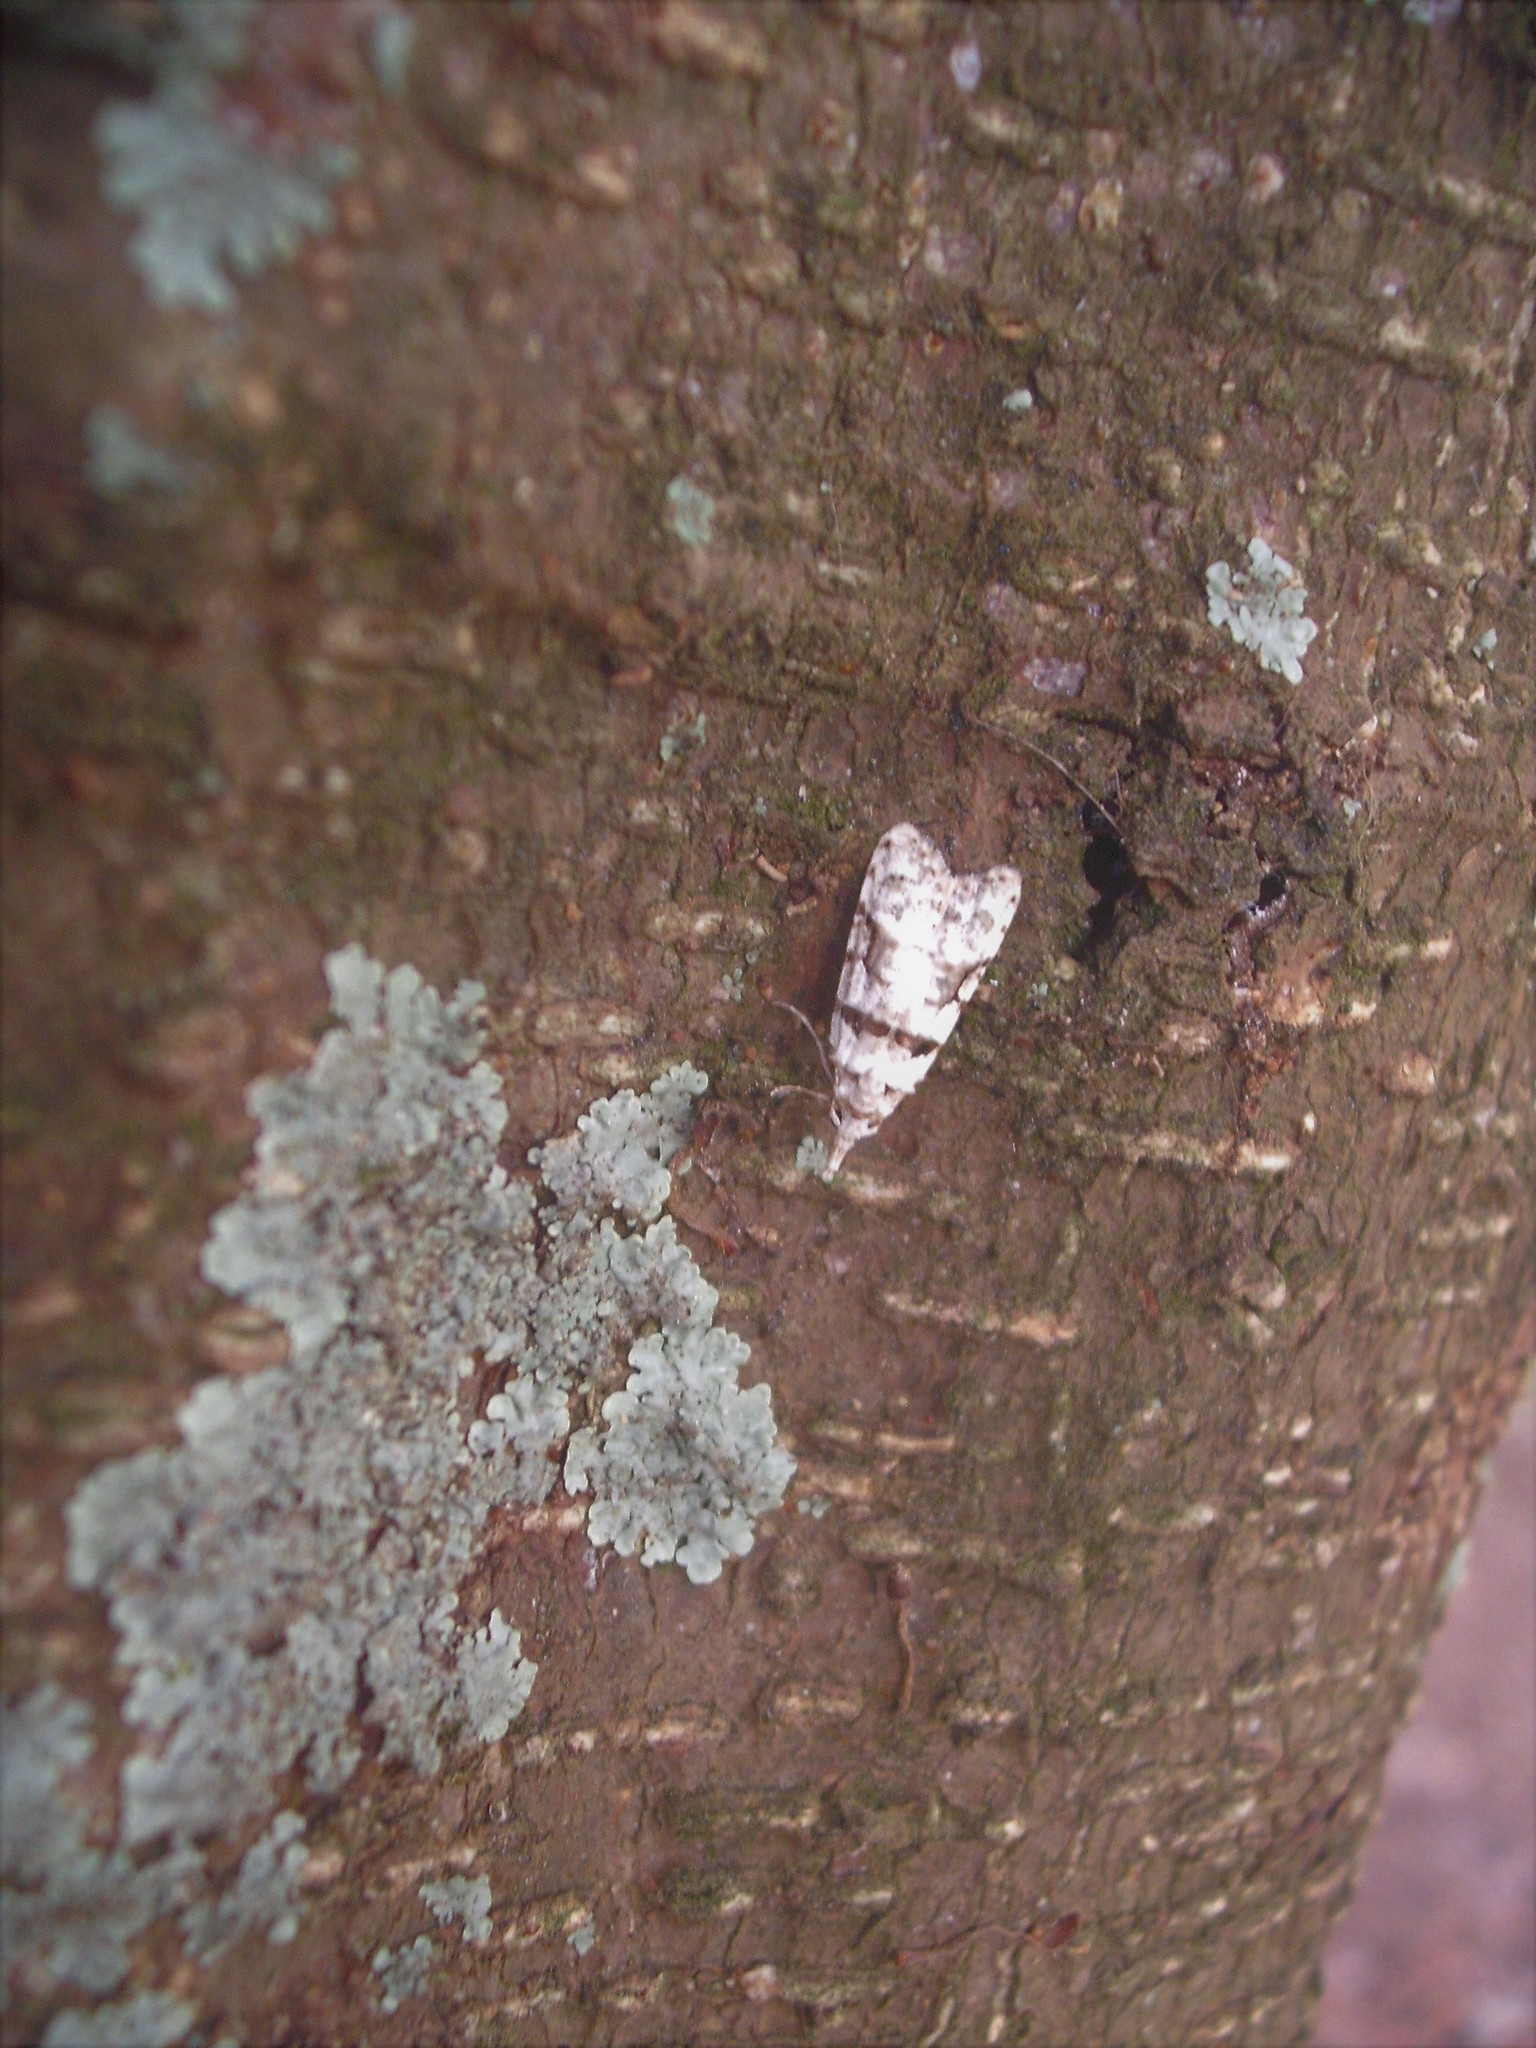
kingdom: Animalia
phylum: Arthropoda
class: Insecta
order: Lepidoptera
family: Carposinidae
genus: Coscinoptycha
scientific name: Coscinoptycha improbana
